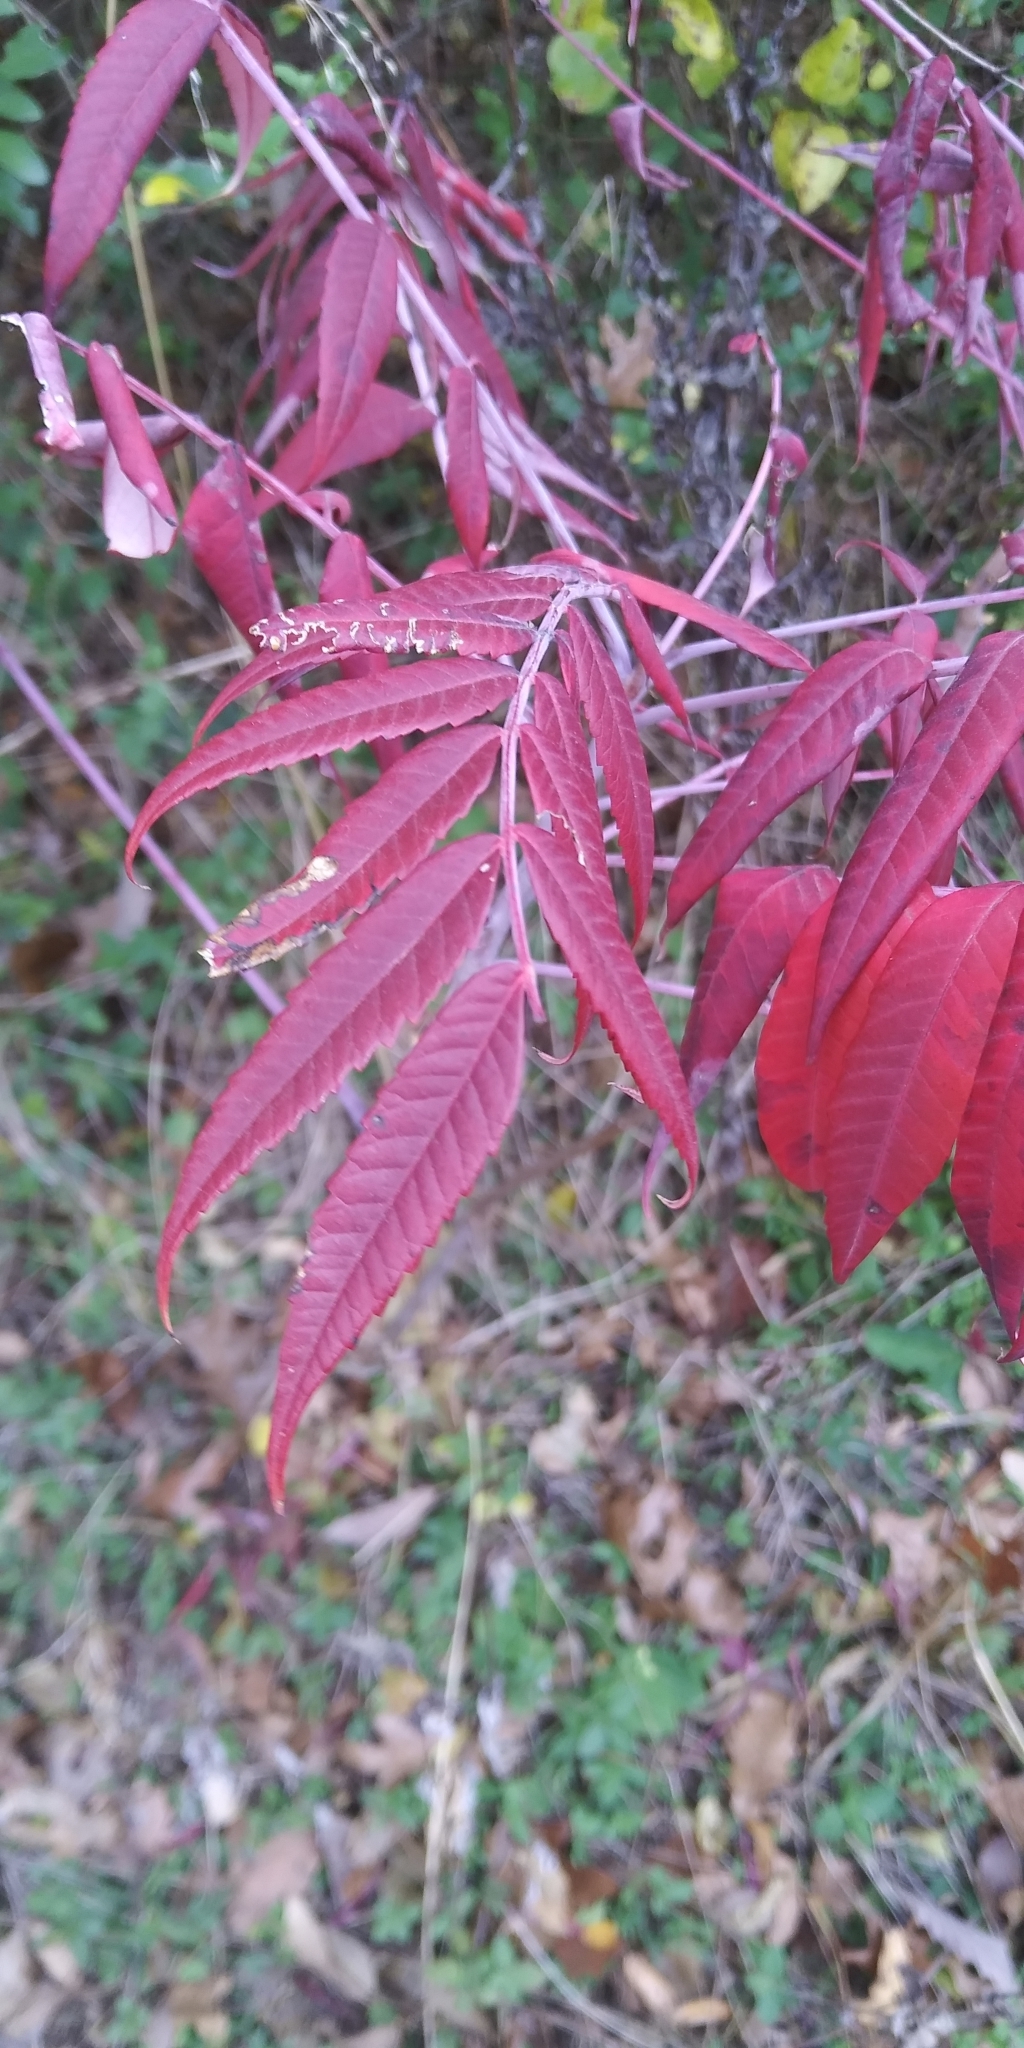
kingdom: Plantae
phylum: Tracheophyta
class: Magnoliopsida
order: Sapindales
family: Anacardiaceae
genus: Rhus
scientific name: Rhus glabra
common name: Scarlet sumac
